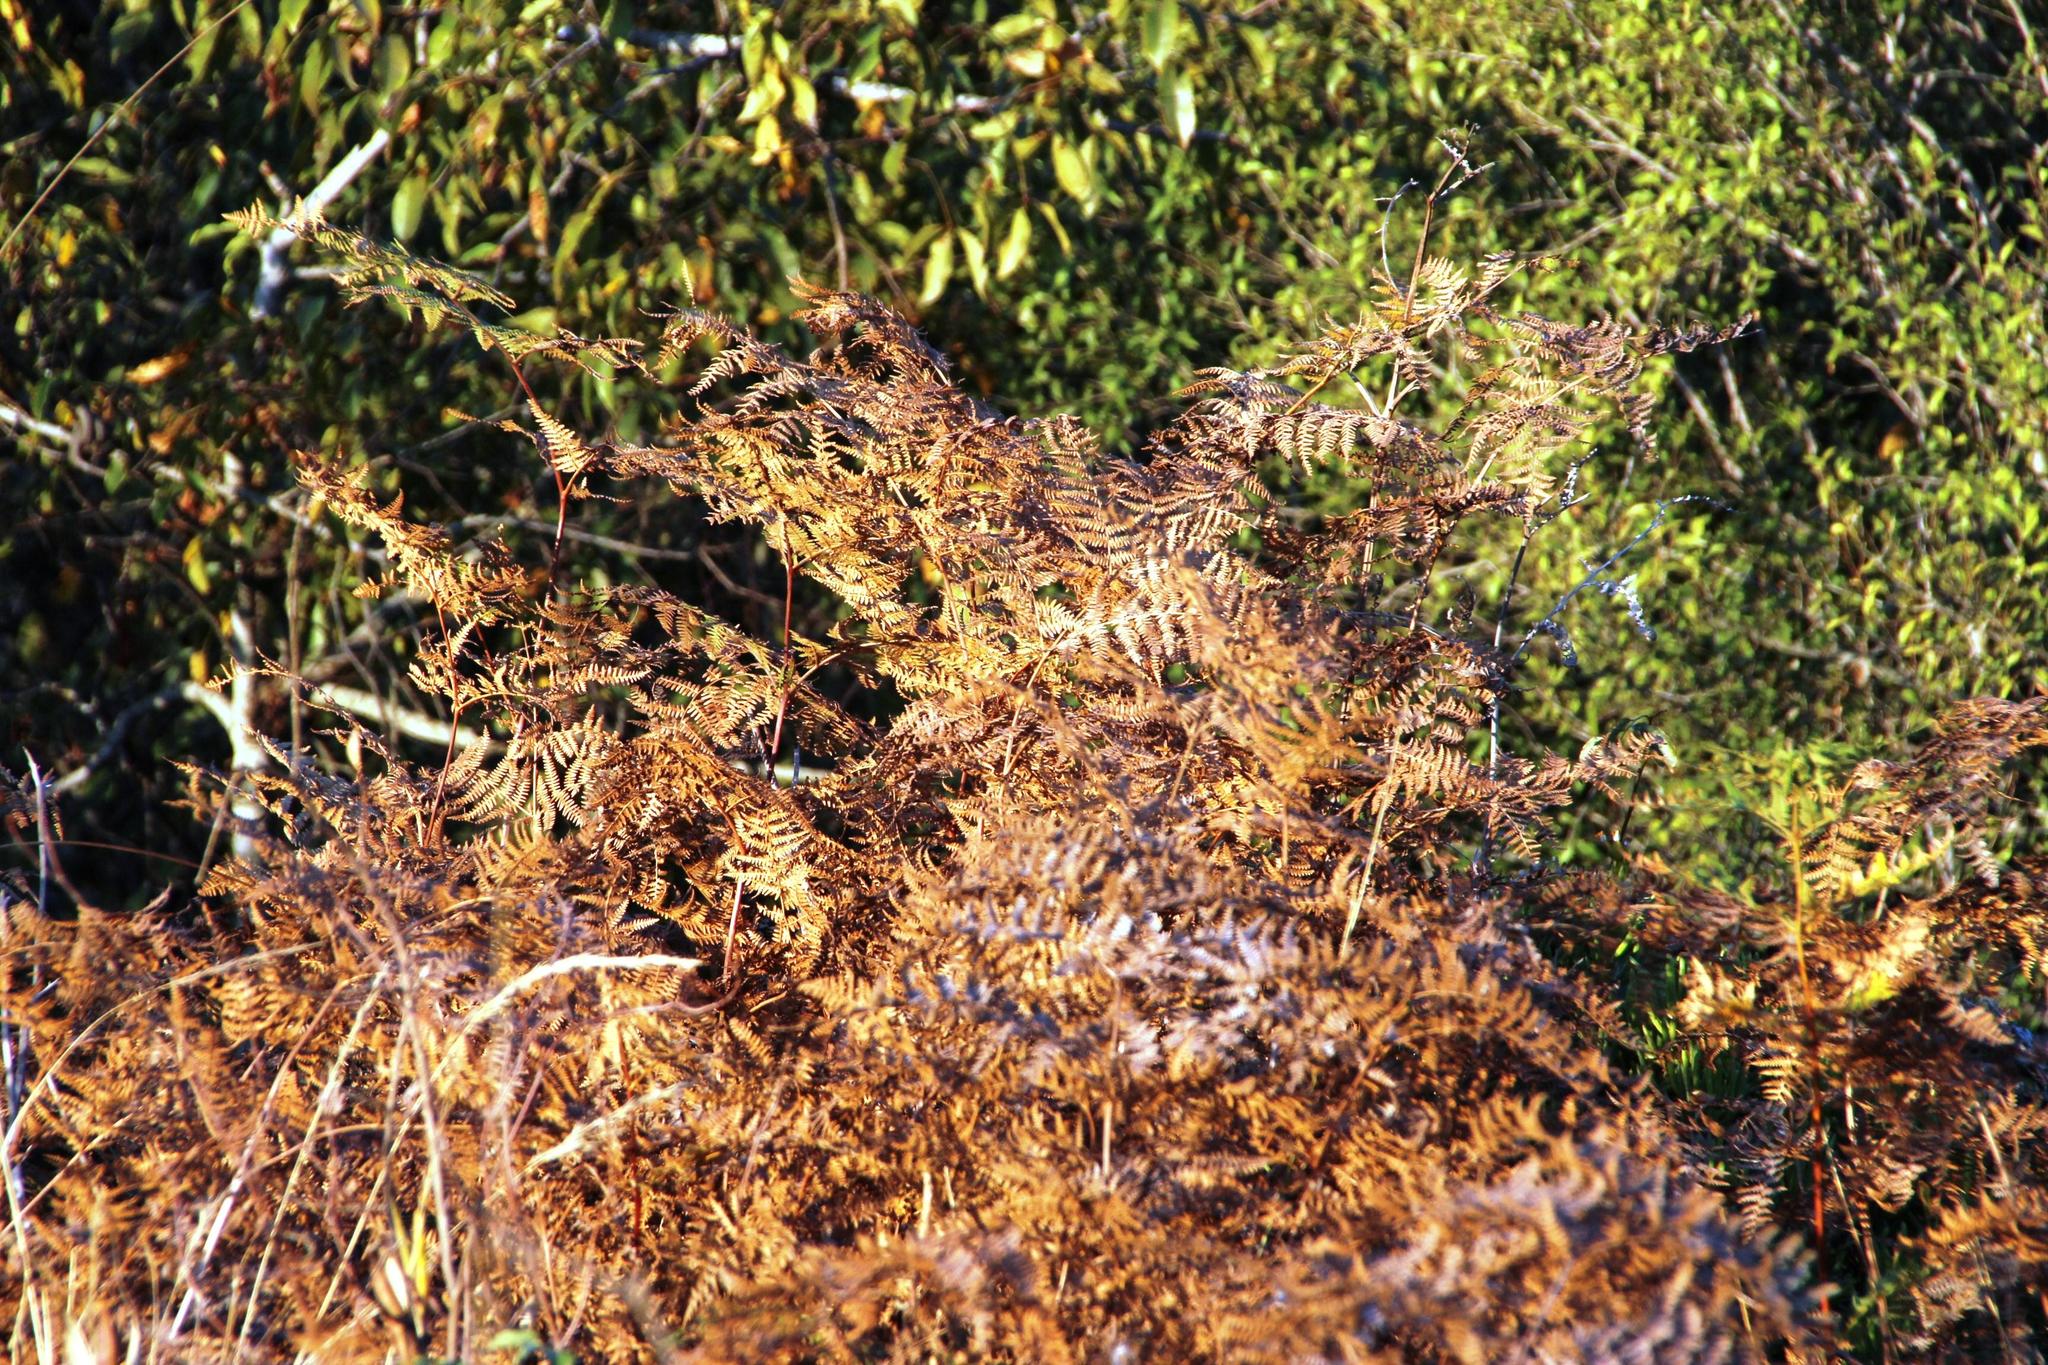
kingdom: Plantae
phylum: Tracheophyta
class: Polypodiopsida
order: Polypodiales
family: Dennstaedtiaceae
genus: Pteridium
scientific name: Pteridium aquilinum
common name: Bracken
